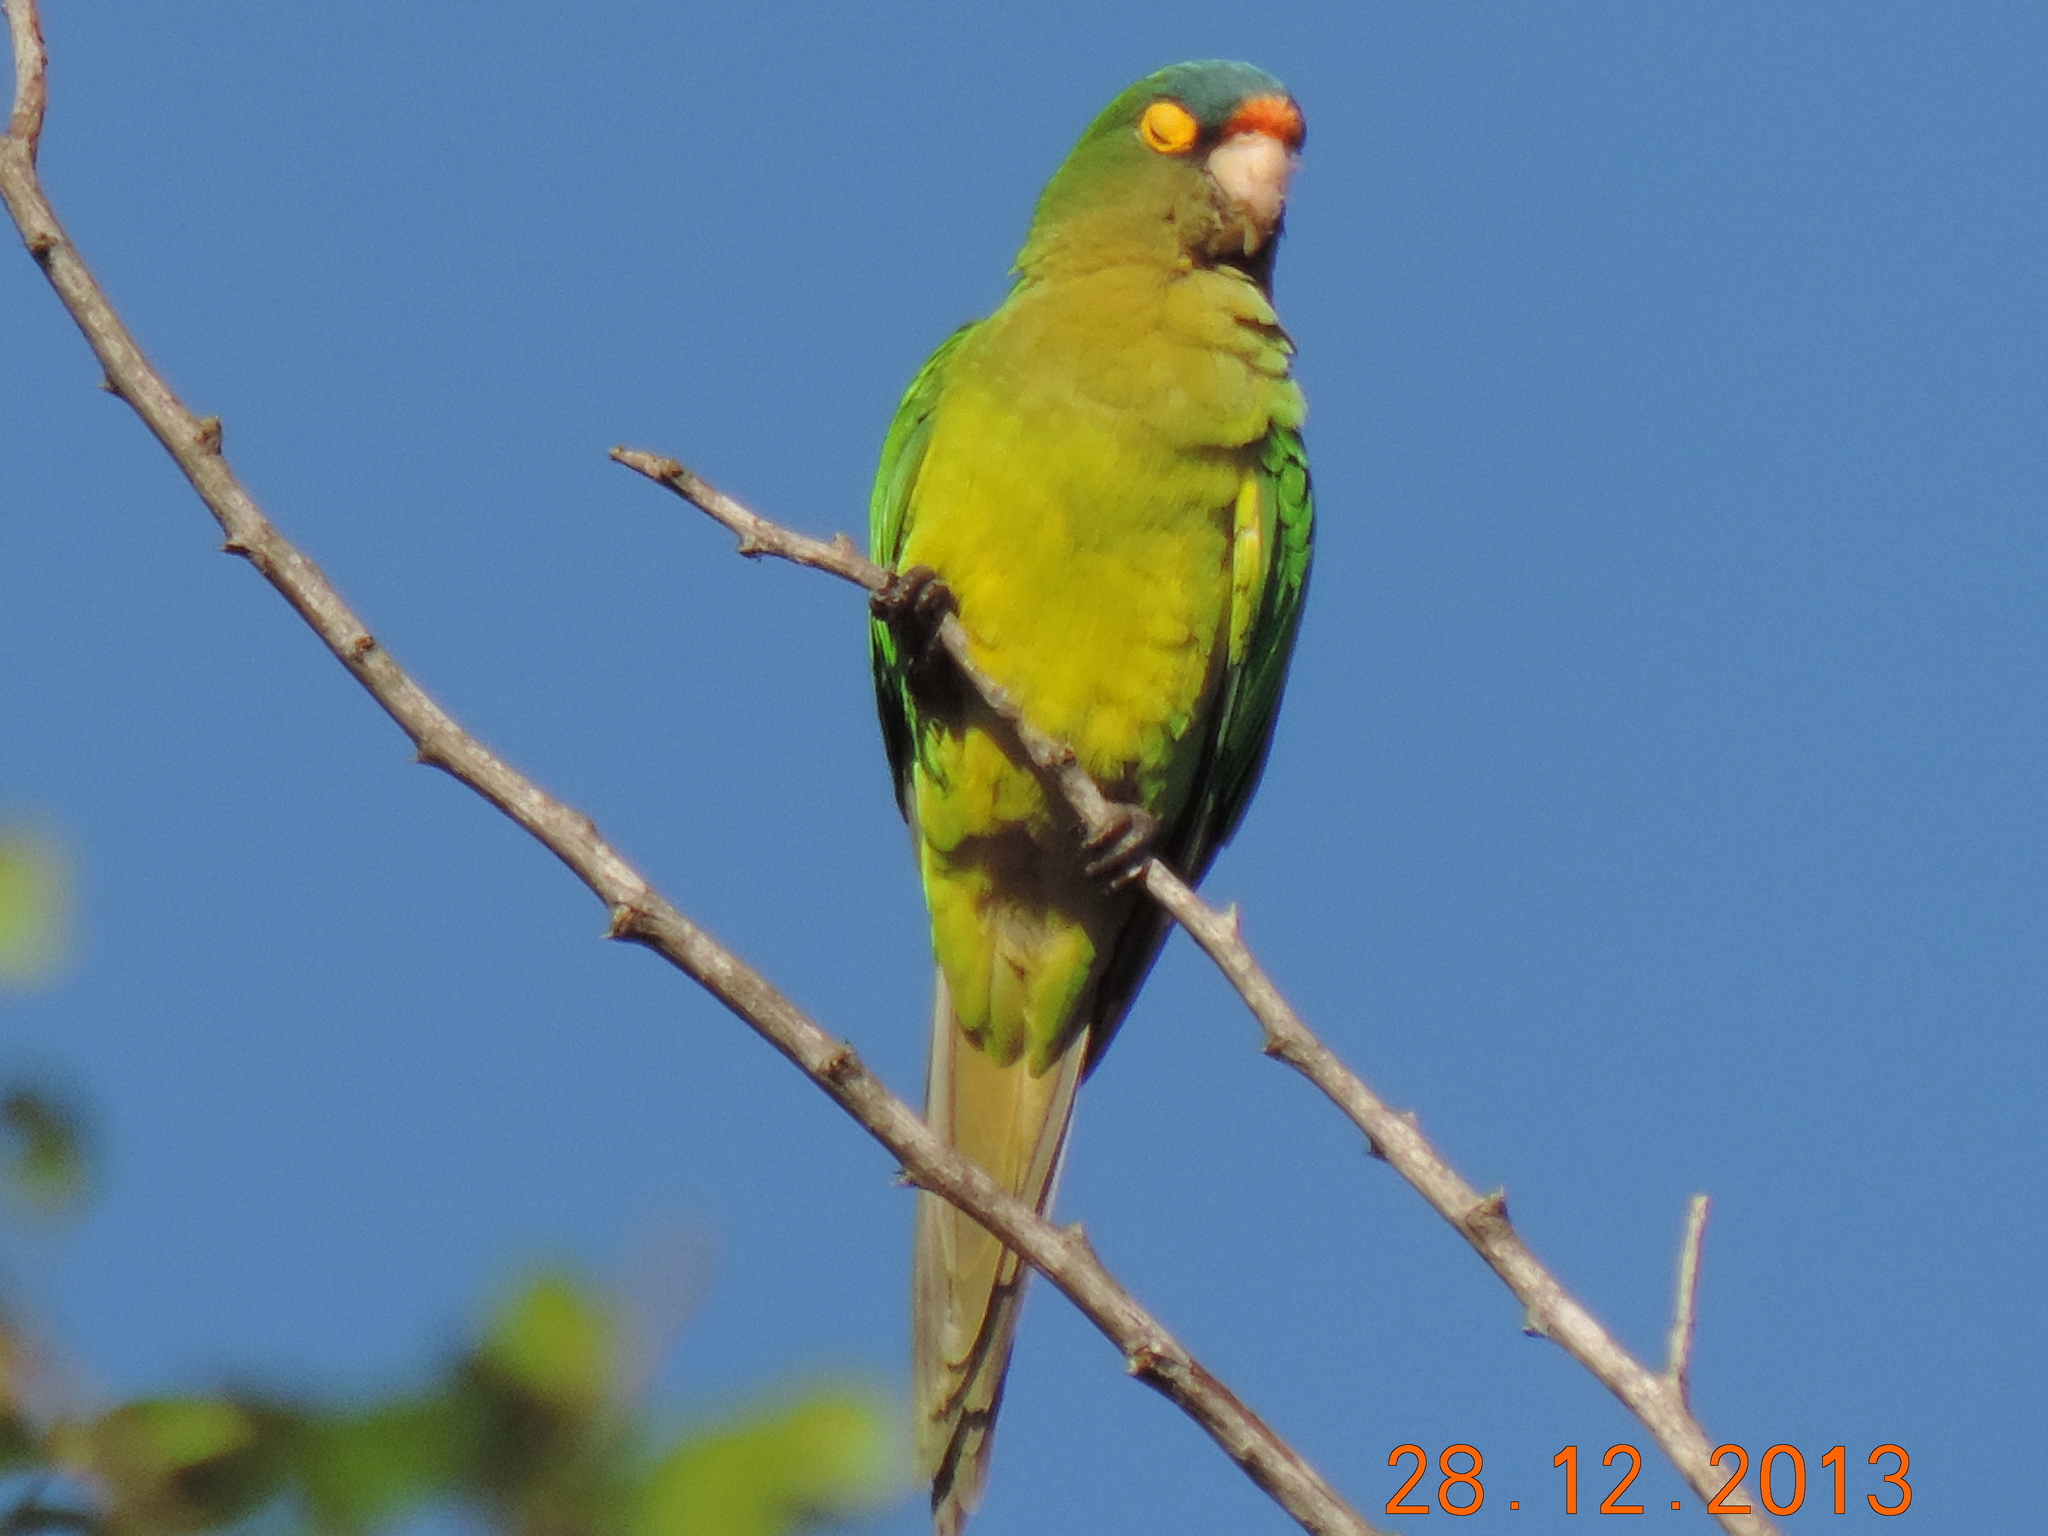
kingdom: Animalia
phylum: Chordata
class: Aves
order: Psittaciformes
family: Psittacidae
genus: Aratinga
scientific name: Aratinga canicularis
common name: Orange-fronted parakeet
